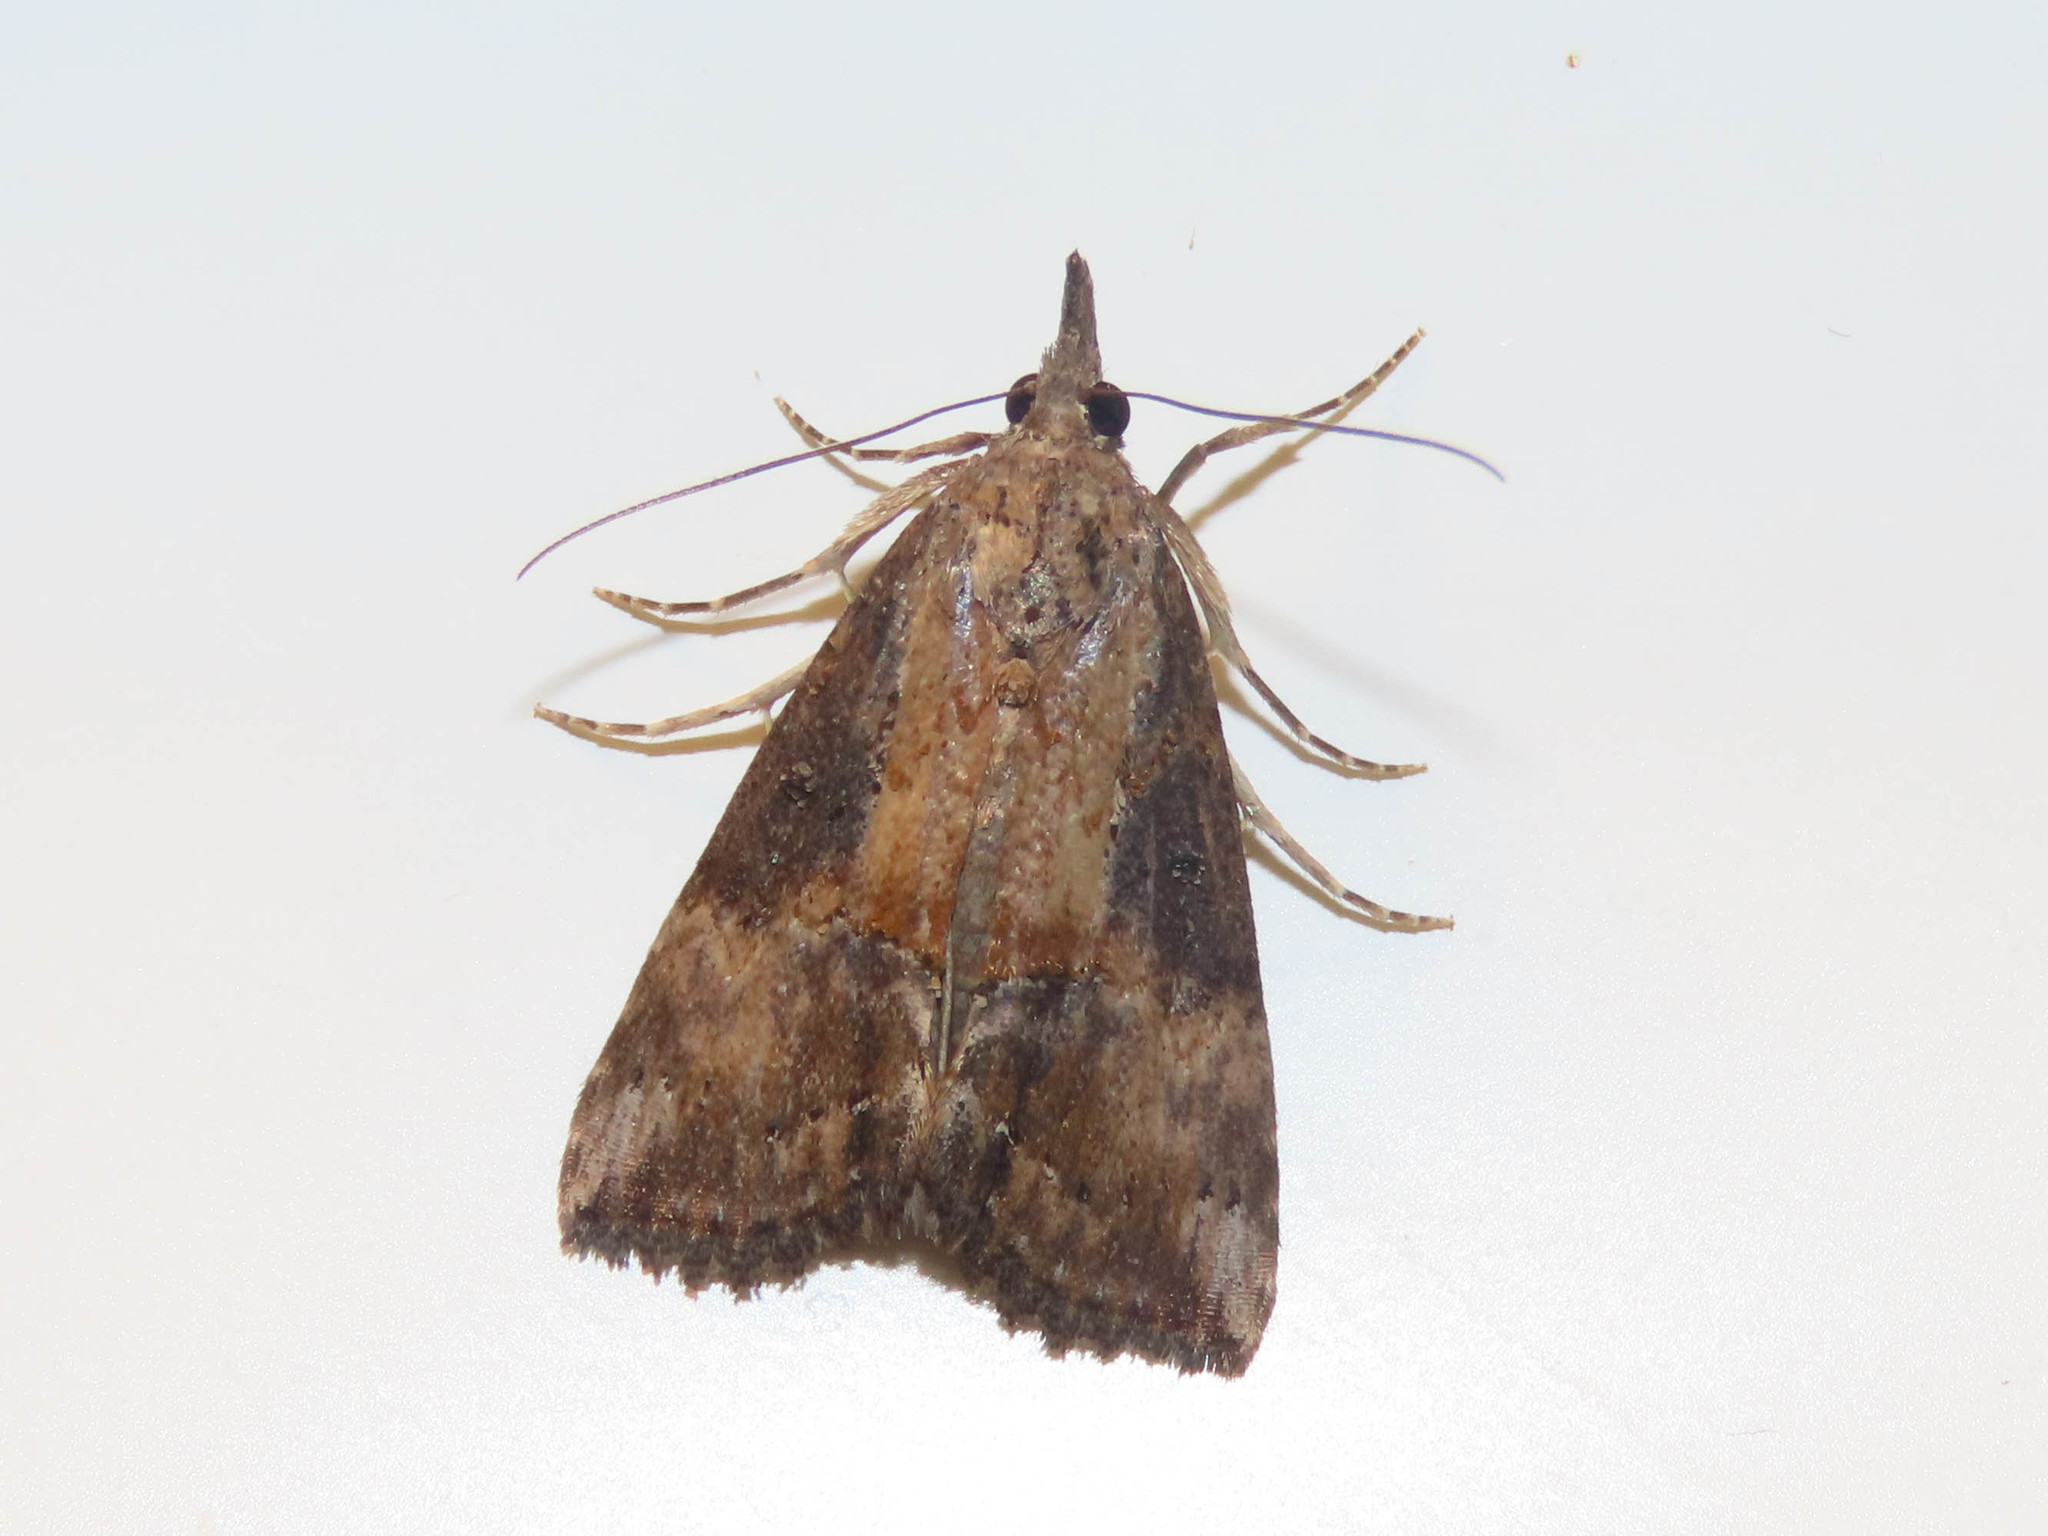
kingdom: Animalia
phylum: Arthropoda
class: Insecta
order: Lepidoptera
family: Erebidae
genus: Hypena
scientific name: Hypena scabra
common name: Green cloverworm
